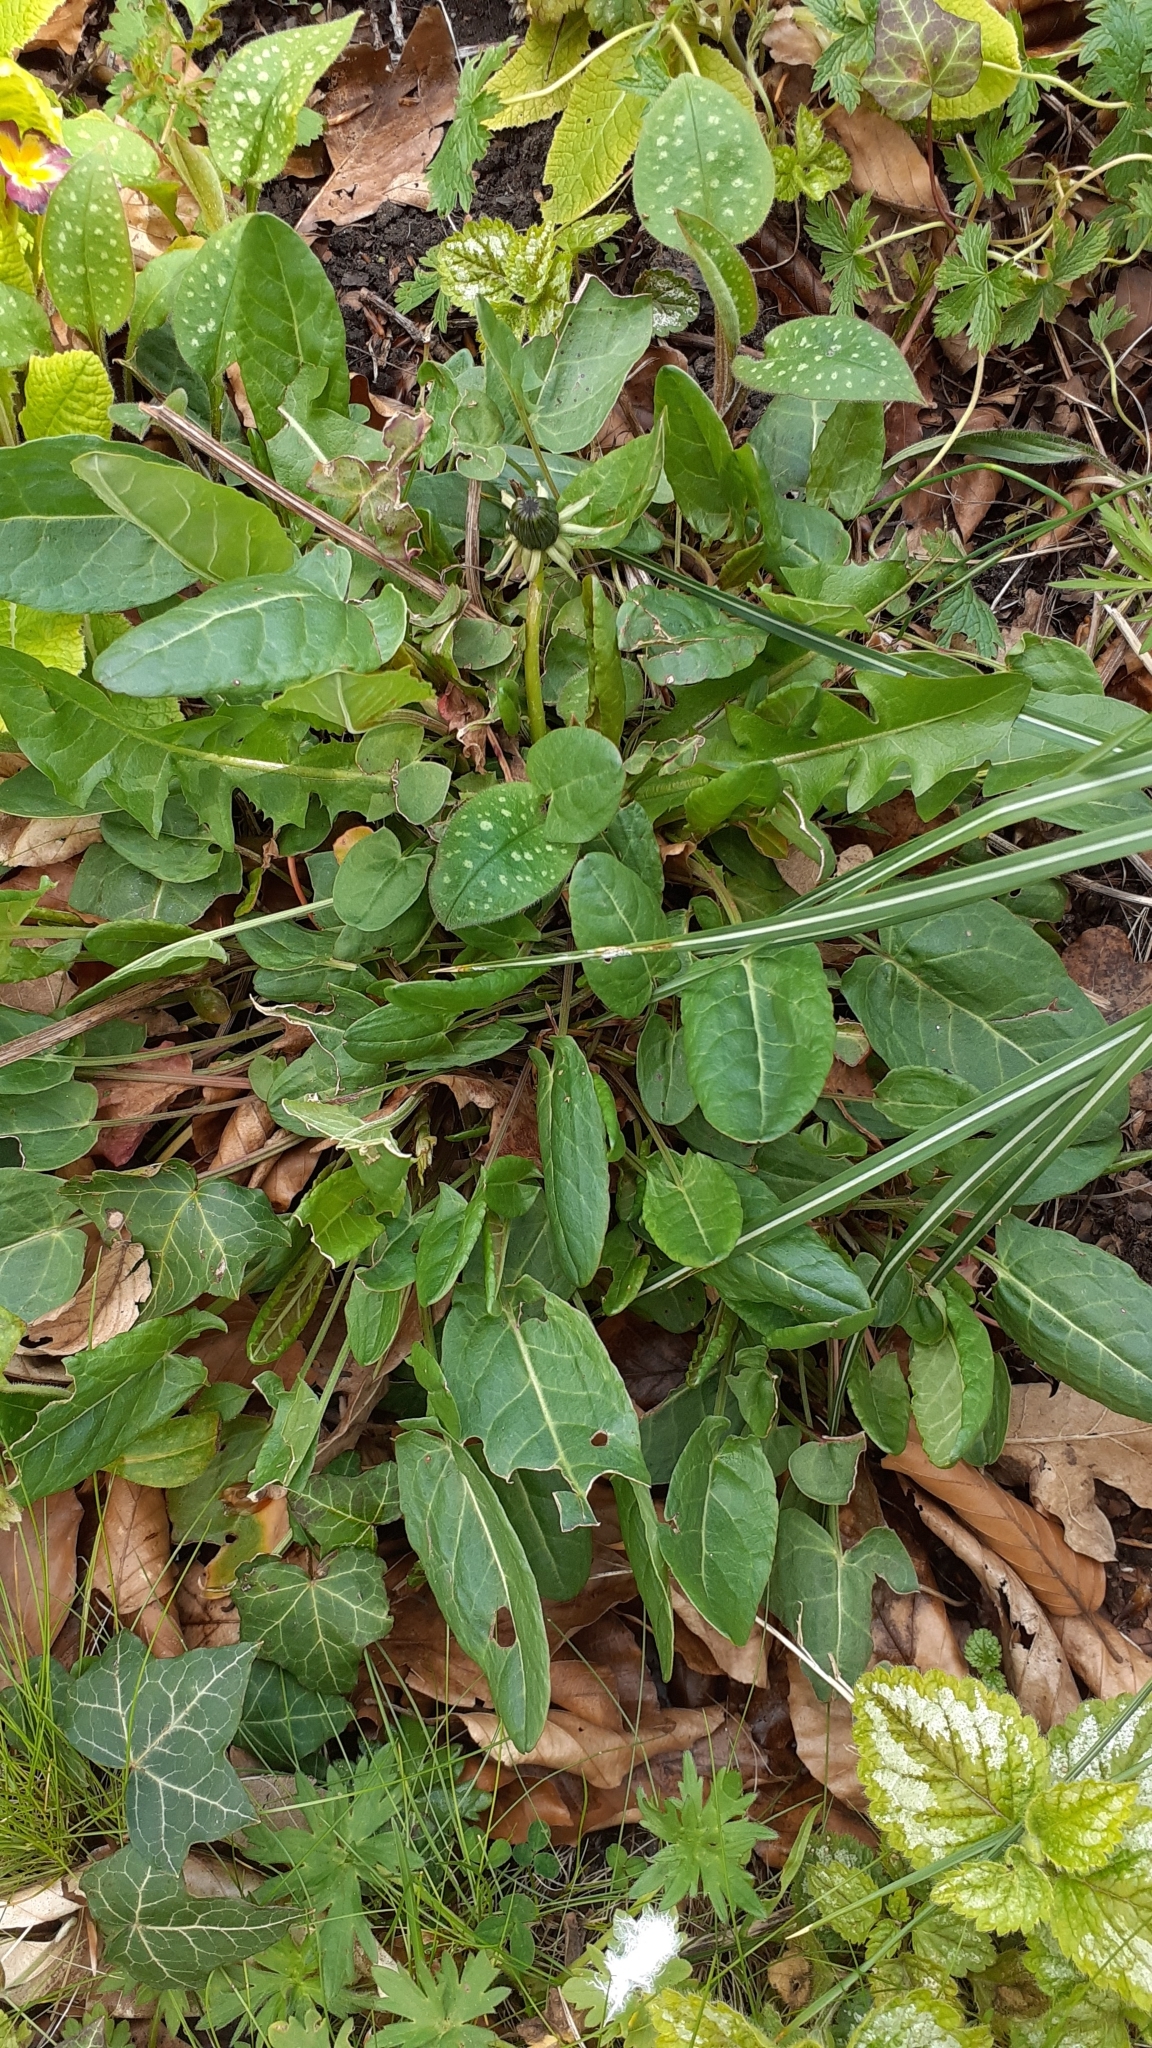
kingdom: Plantae
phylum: Tracheophyta
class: Magnoliopsida
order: Caryophyllales
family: Polygonaceae
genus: Rumex
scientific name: Rumex acetosa
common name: Garden sorrel
